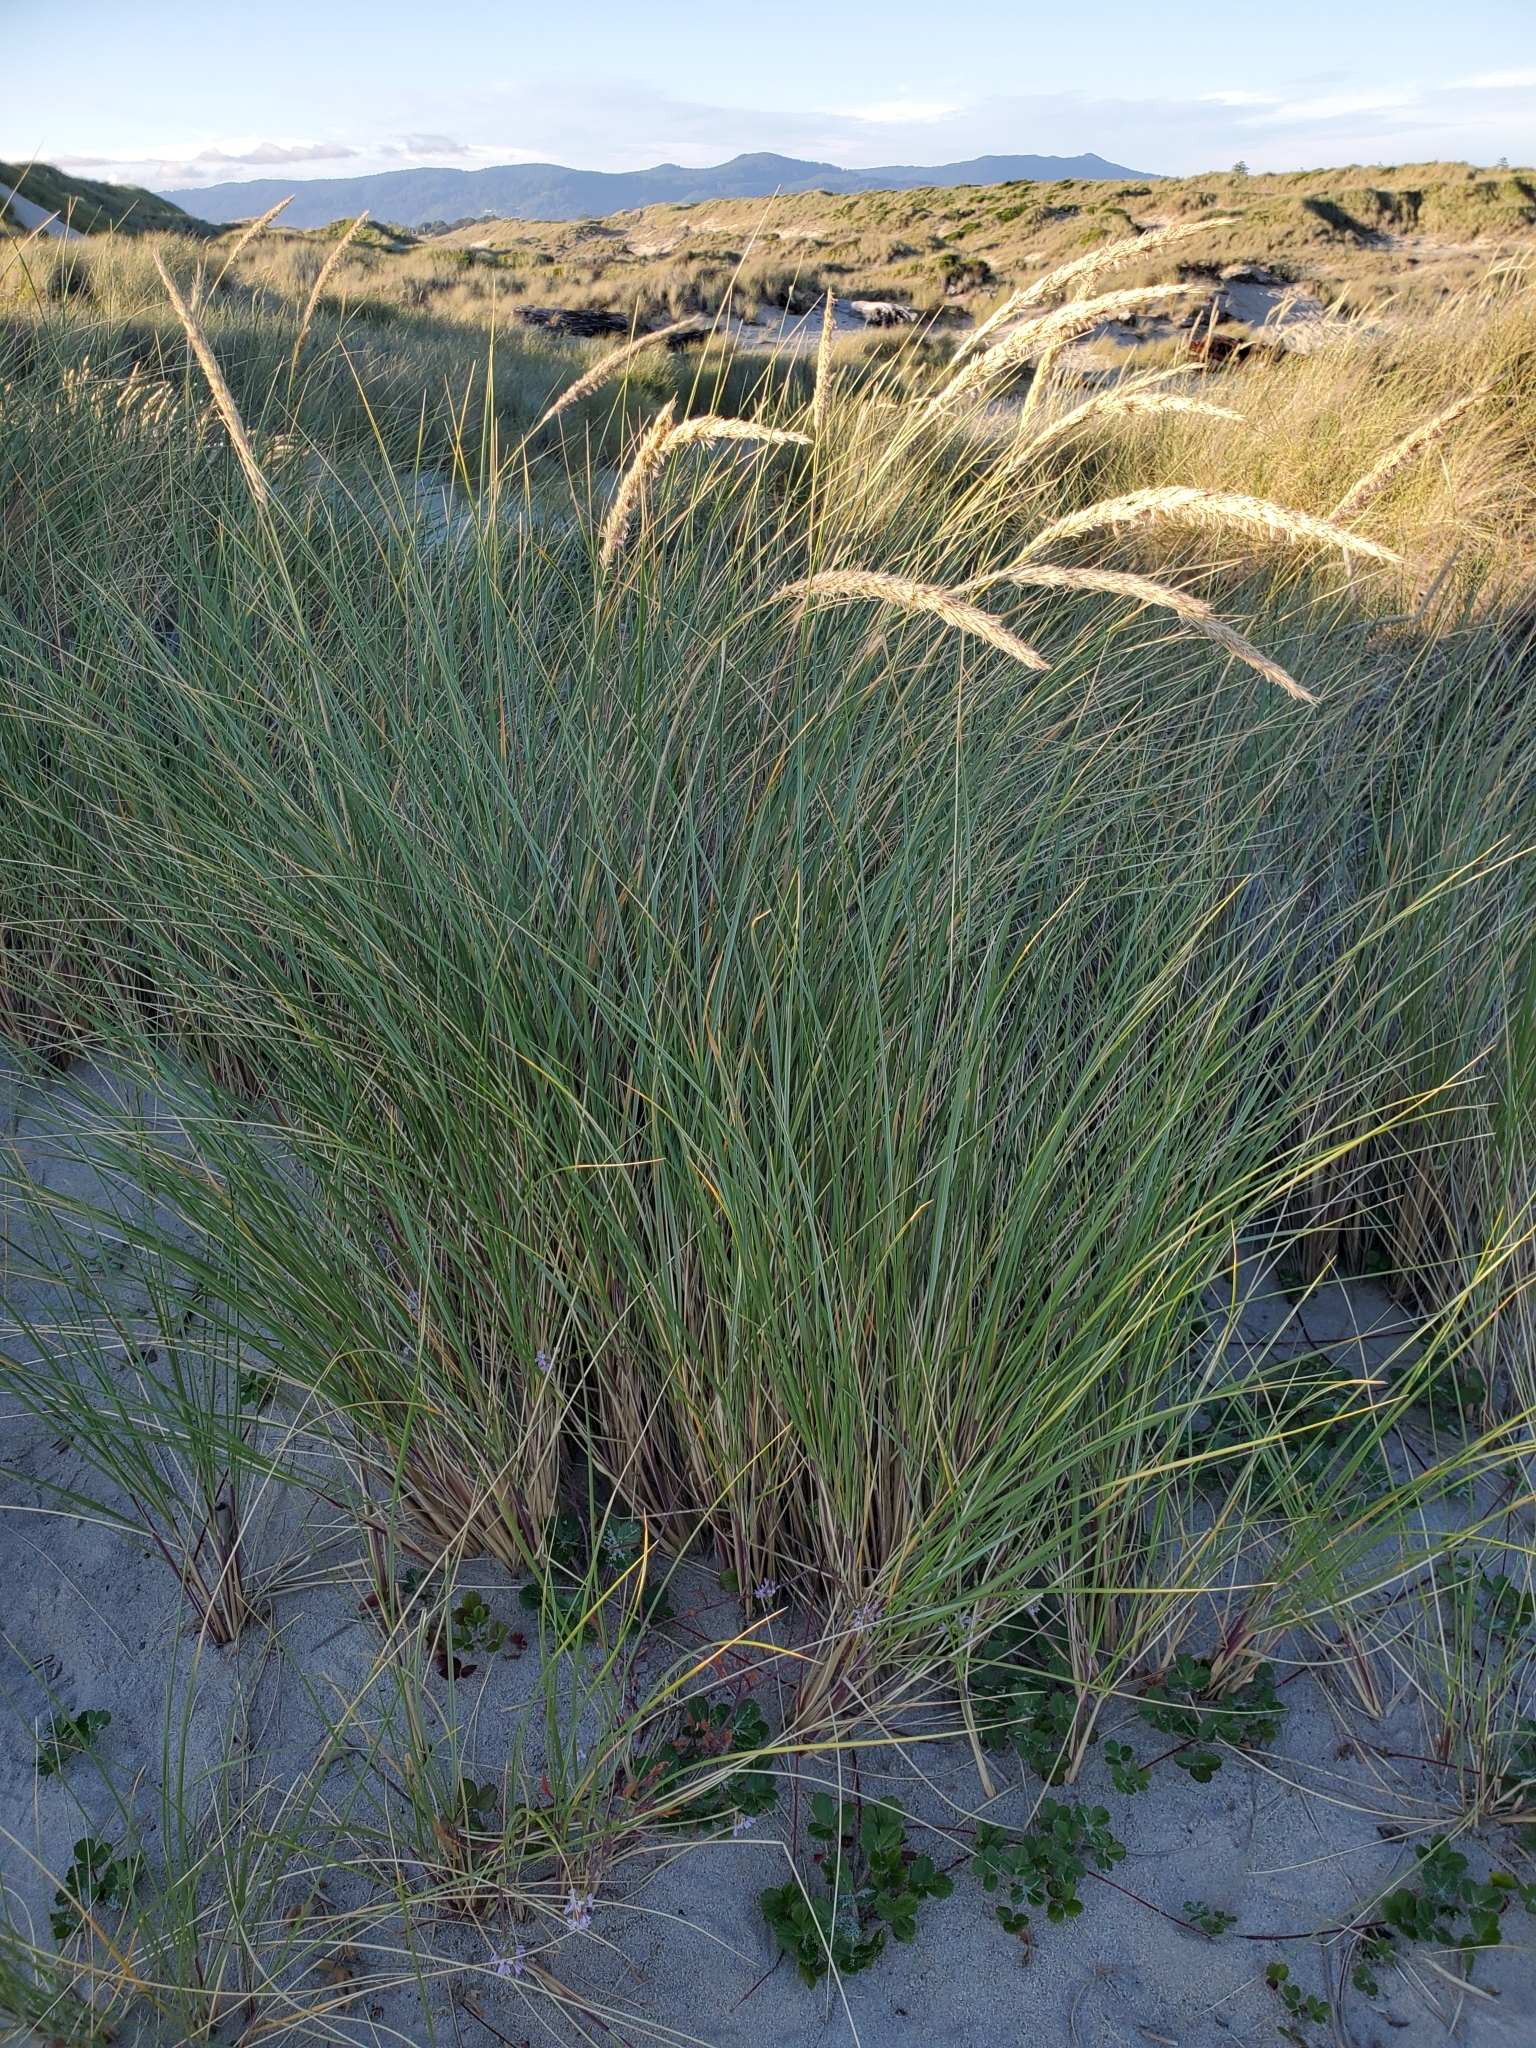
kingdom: Plantae
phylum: Tracheophyta
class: Liliopsida
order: Poales
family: Poaceae
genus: Calamagrostis
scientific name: Calamagrostis arenaria
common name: European beachgrass
